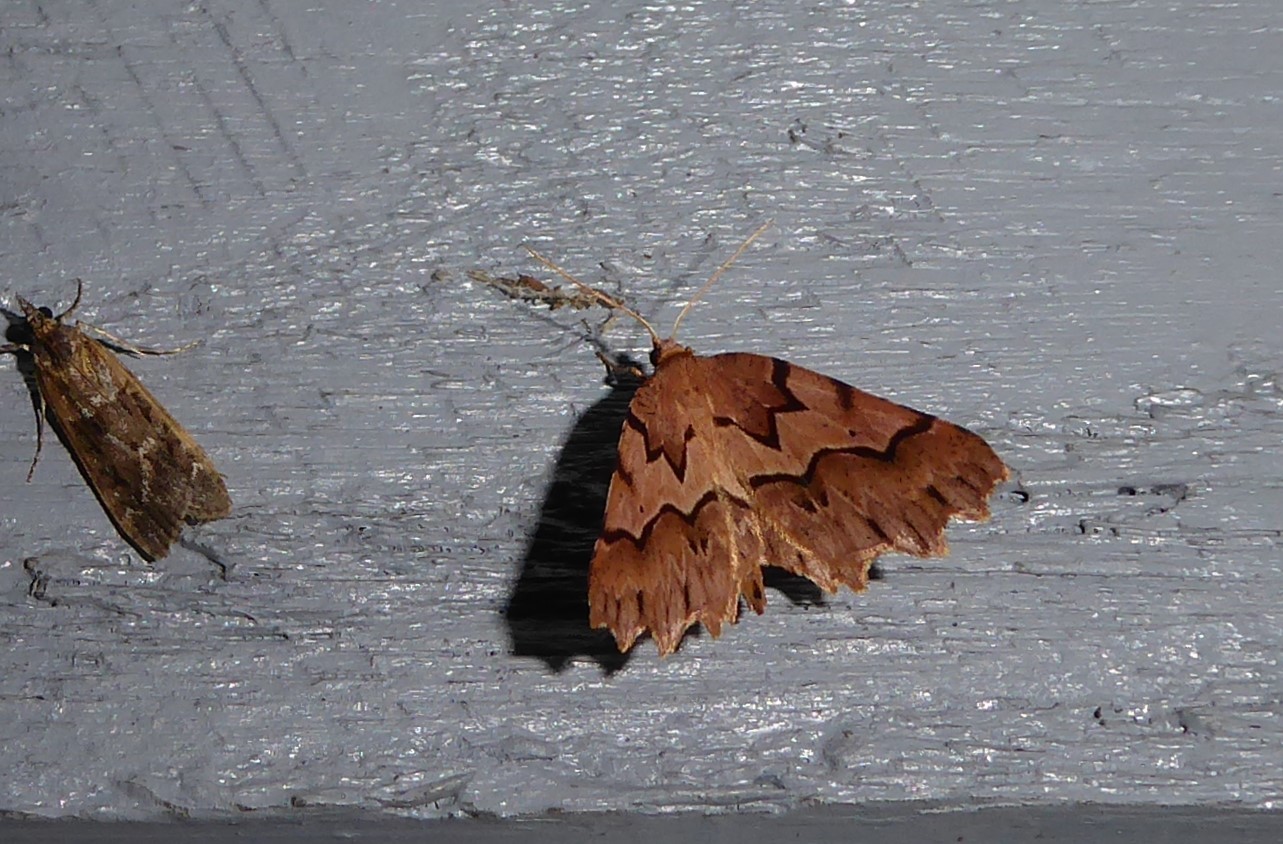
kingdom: Animalia
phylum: Arthropoda
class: Insecta
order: Lepidoptera
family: Geometridae
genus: Ischalis
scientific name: Ischalis fortinata
